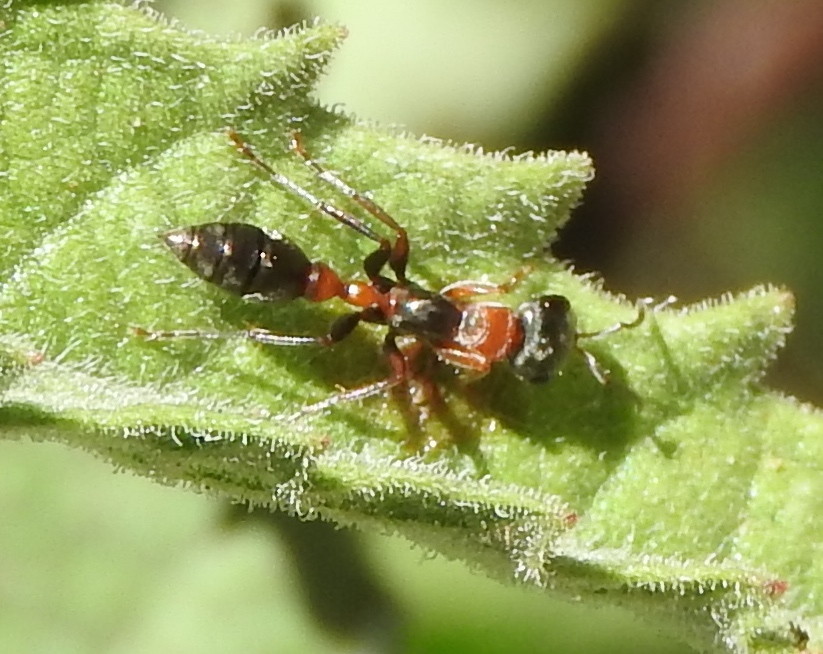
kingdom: Animalia
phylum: Arthropoda
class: Insecta
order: Hymenoptera
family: Formicidae
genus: Pseudomyrmex
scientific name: Pseudomyrmex gracilis
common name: Graceful twig ant
